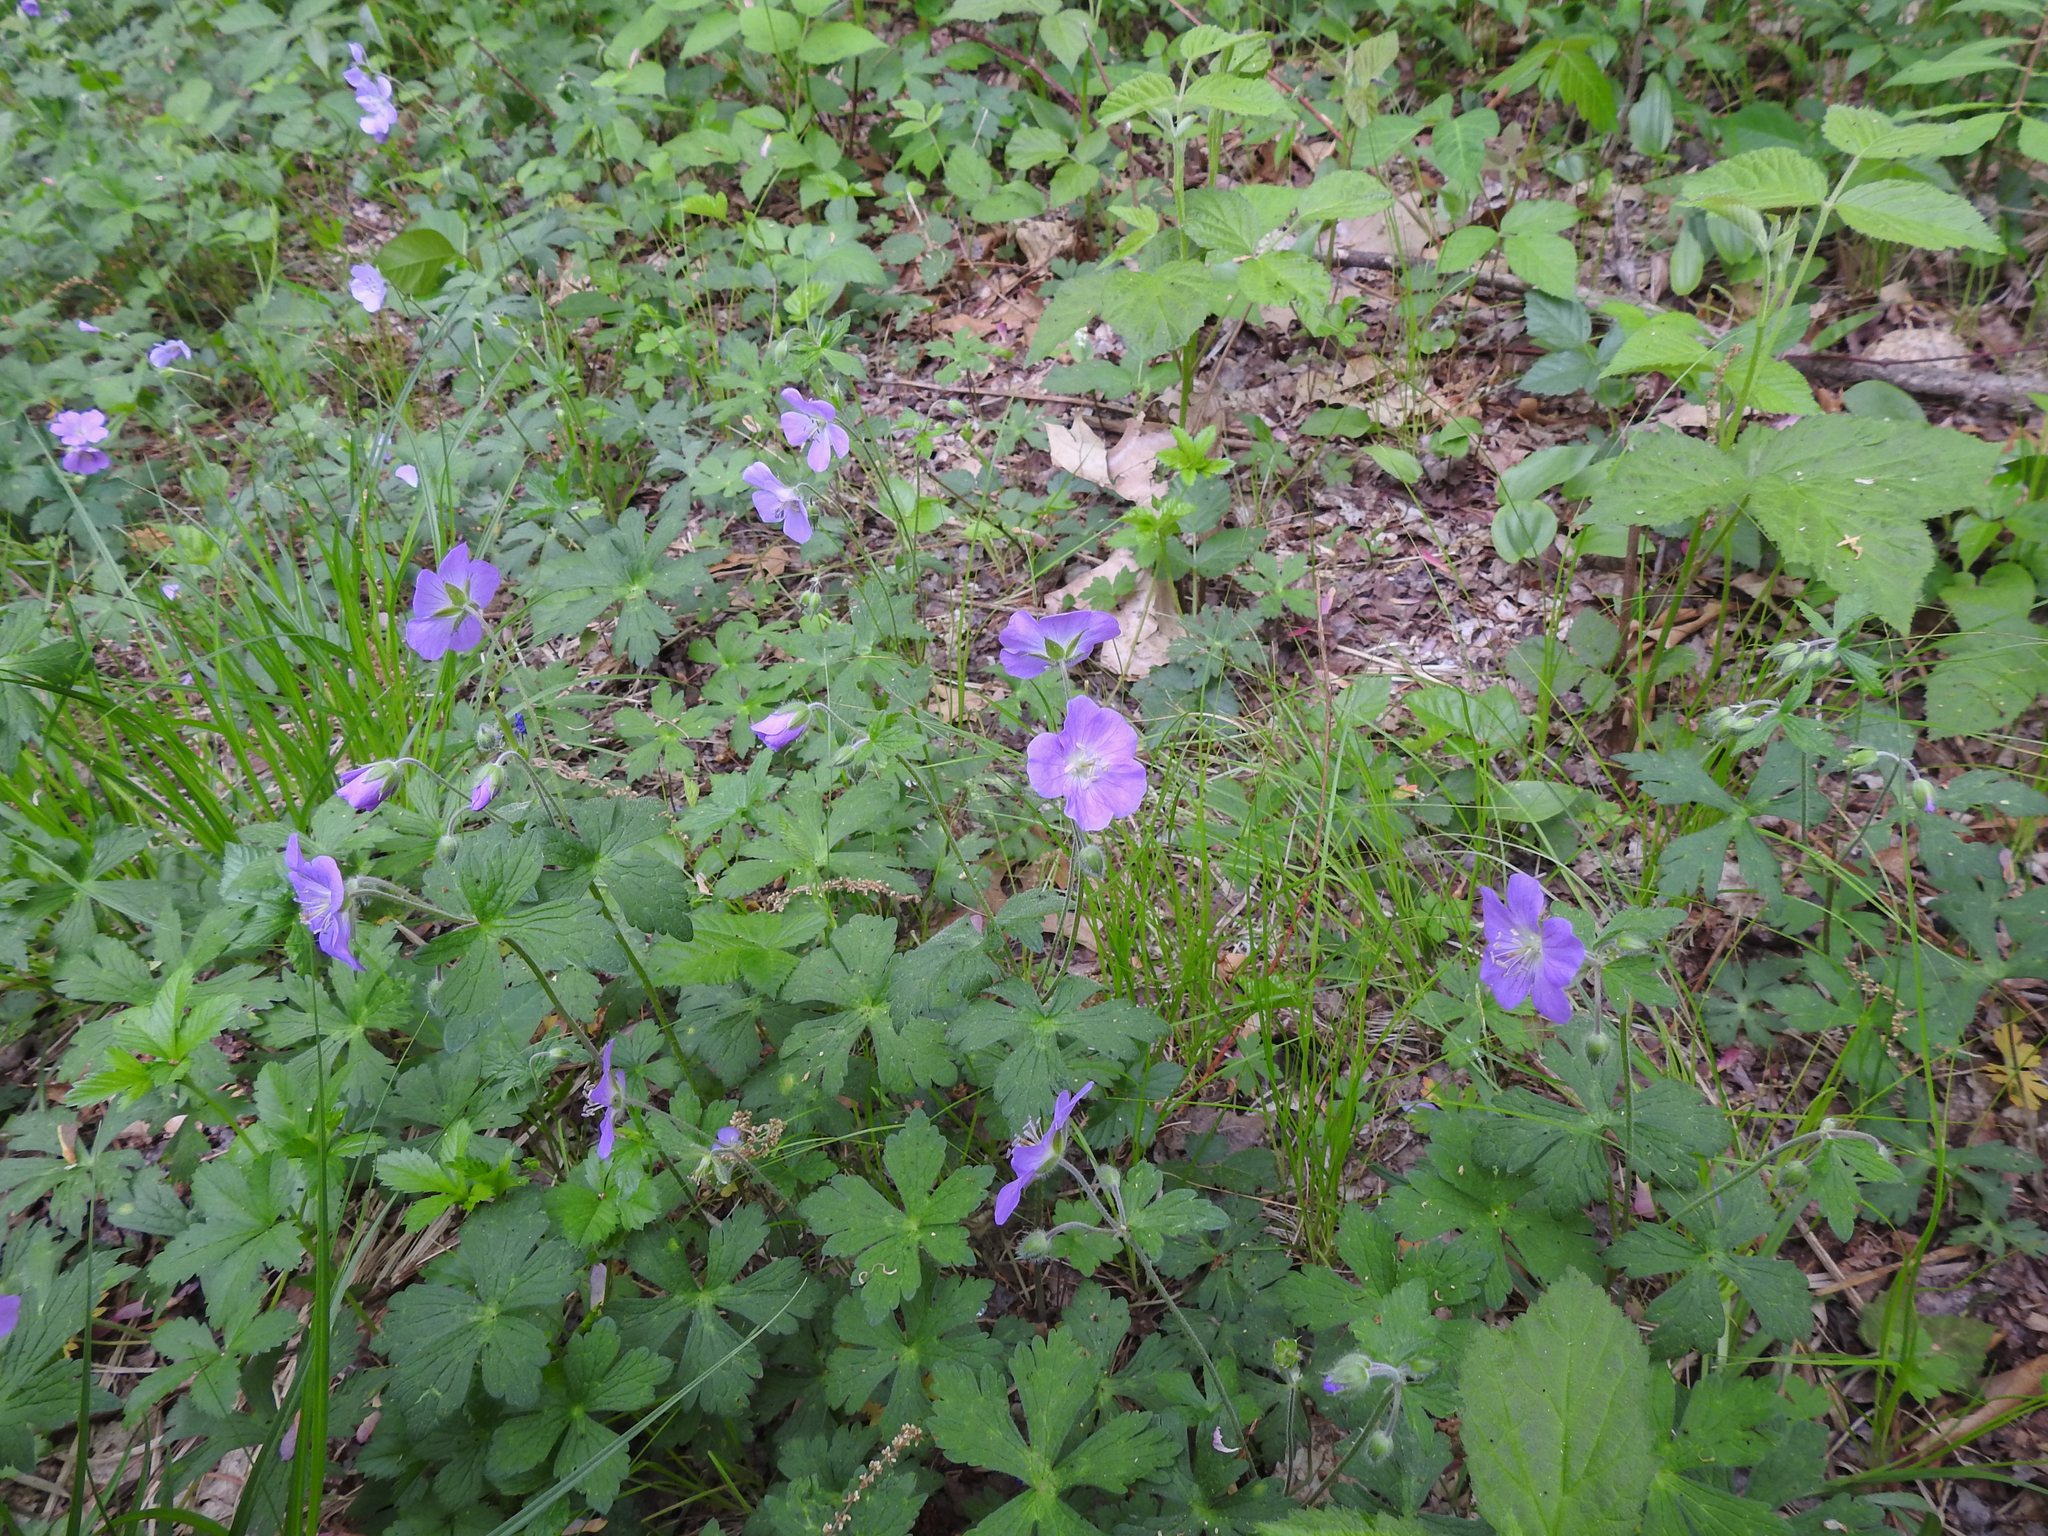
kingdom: Plantae
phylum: Tracheophyta
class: Magnoliopsida
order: Geraniales
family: Geraniaceae
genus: Geranium
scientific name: Geranium maculatum
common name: Spotted geranium
